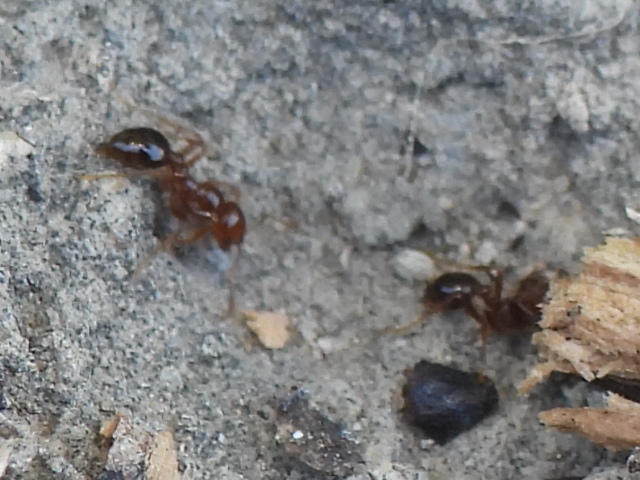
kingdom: Animalia
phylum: Arthropoda
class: Insecta
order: Hymenoptera
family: Formicidae
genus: Solenopsis
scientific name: Solenopsis invicta
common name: Red imported fire ant
